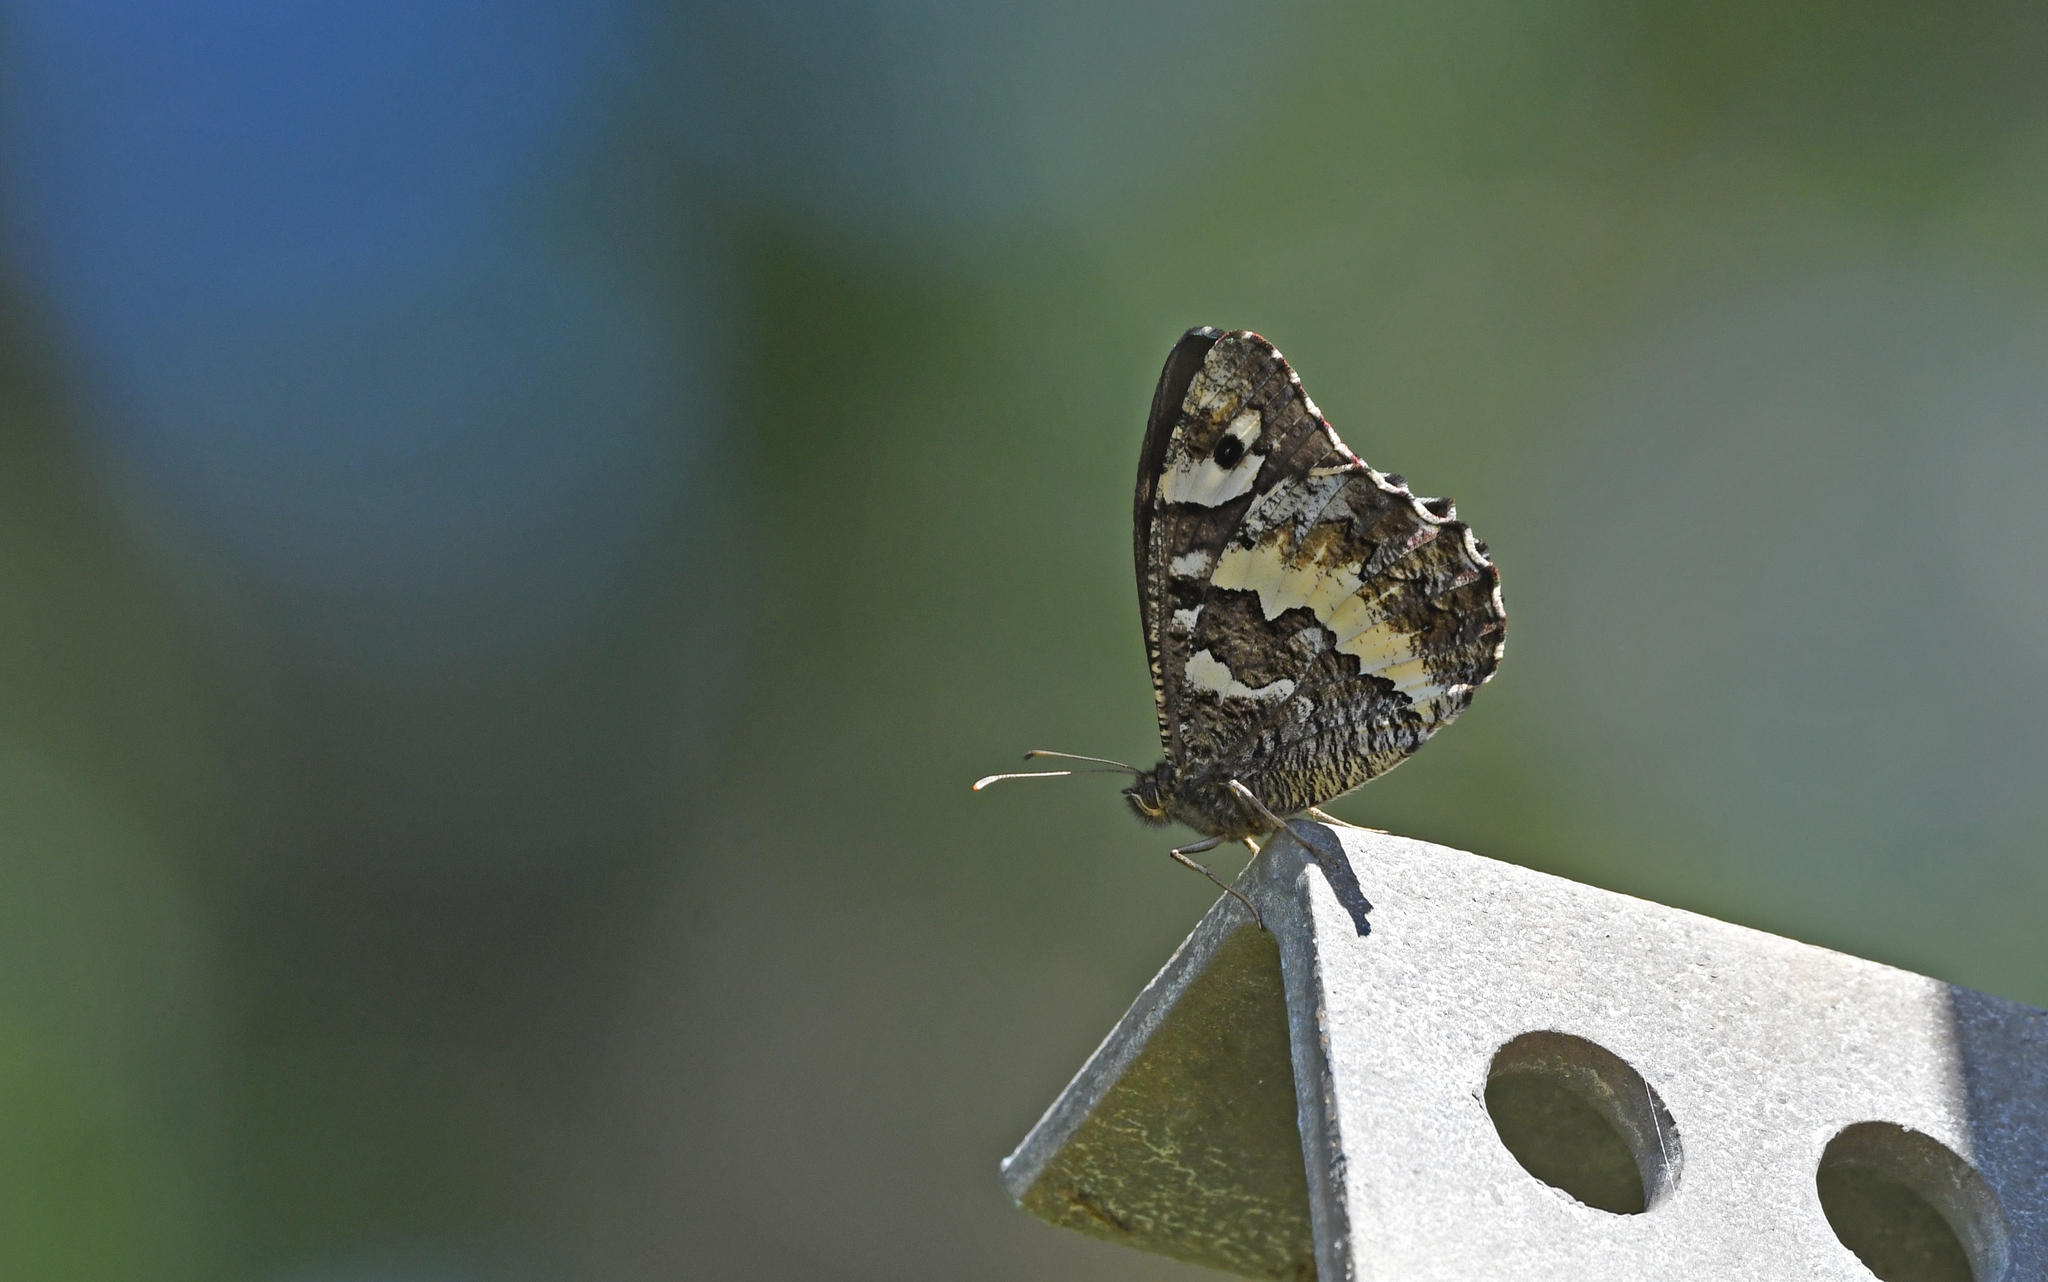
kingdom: Animalia
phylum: Arthropoda
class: Insecta
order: Lepidoptera
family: Lycaenidae
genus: Loweia
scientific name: Loweia tityrus
